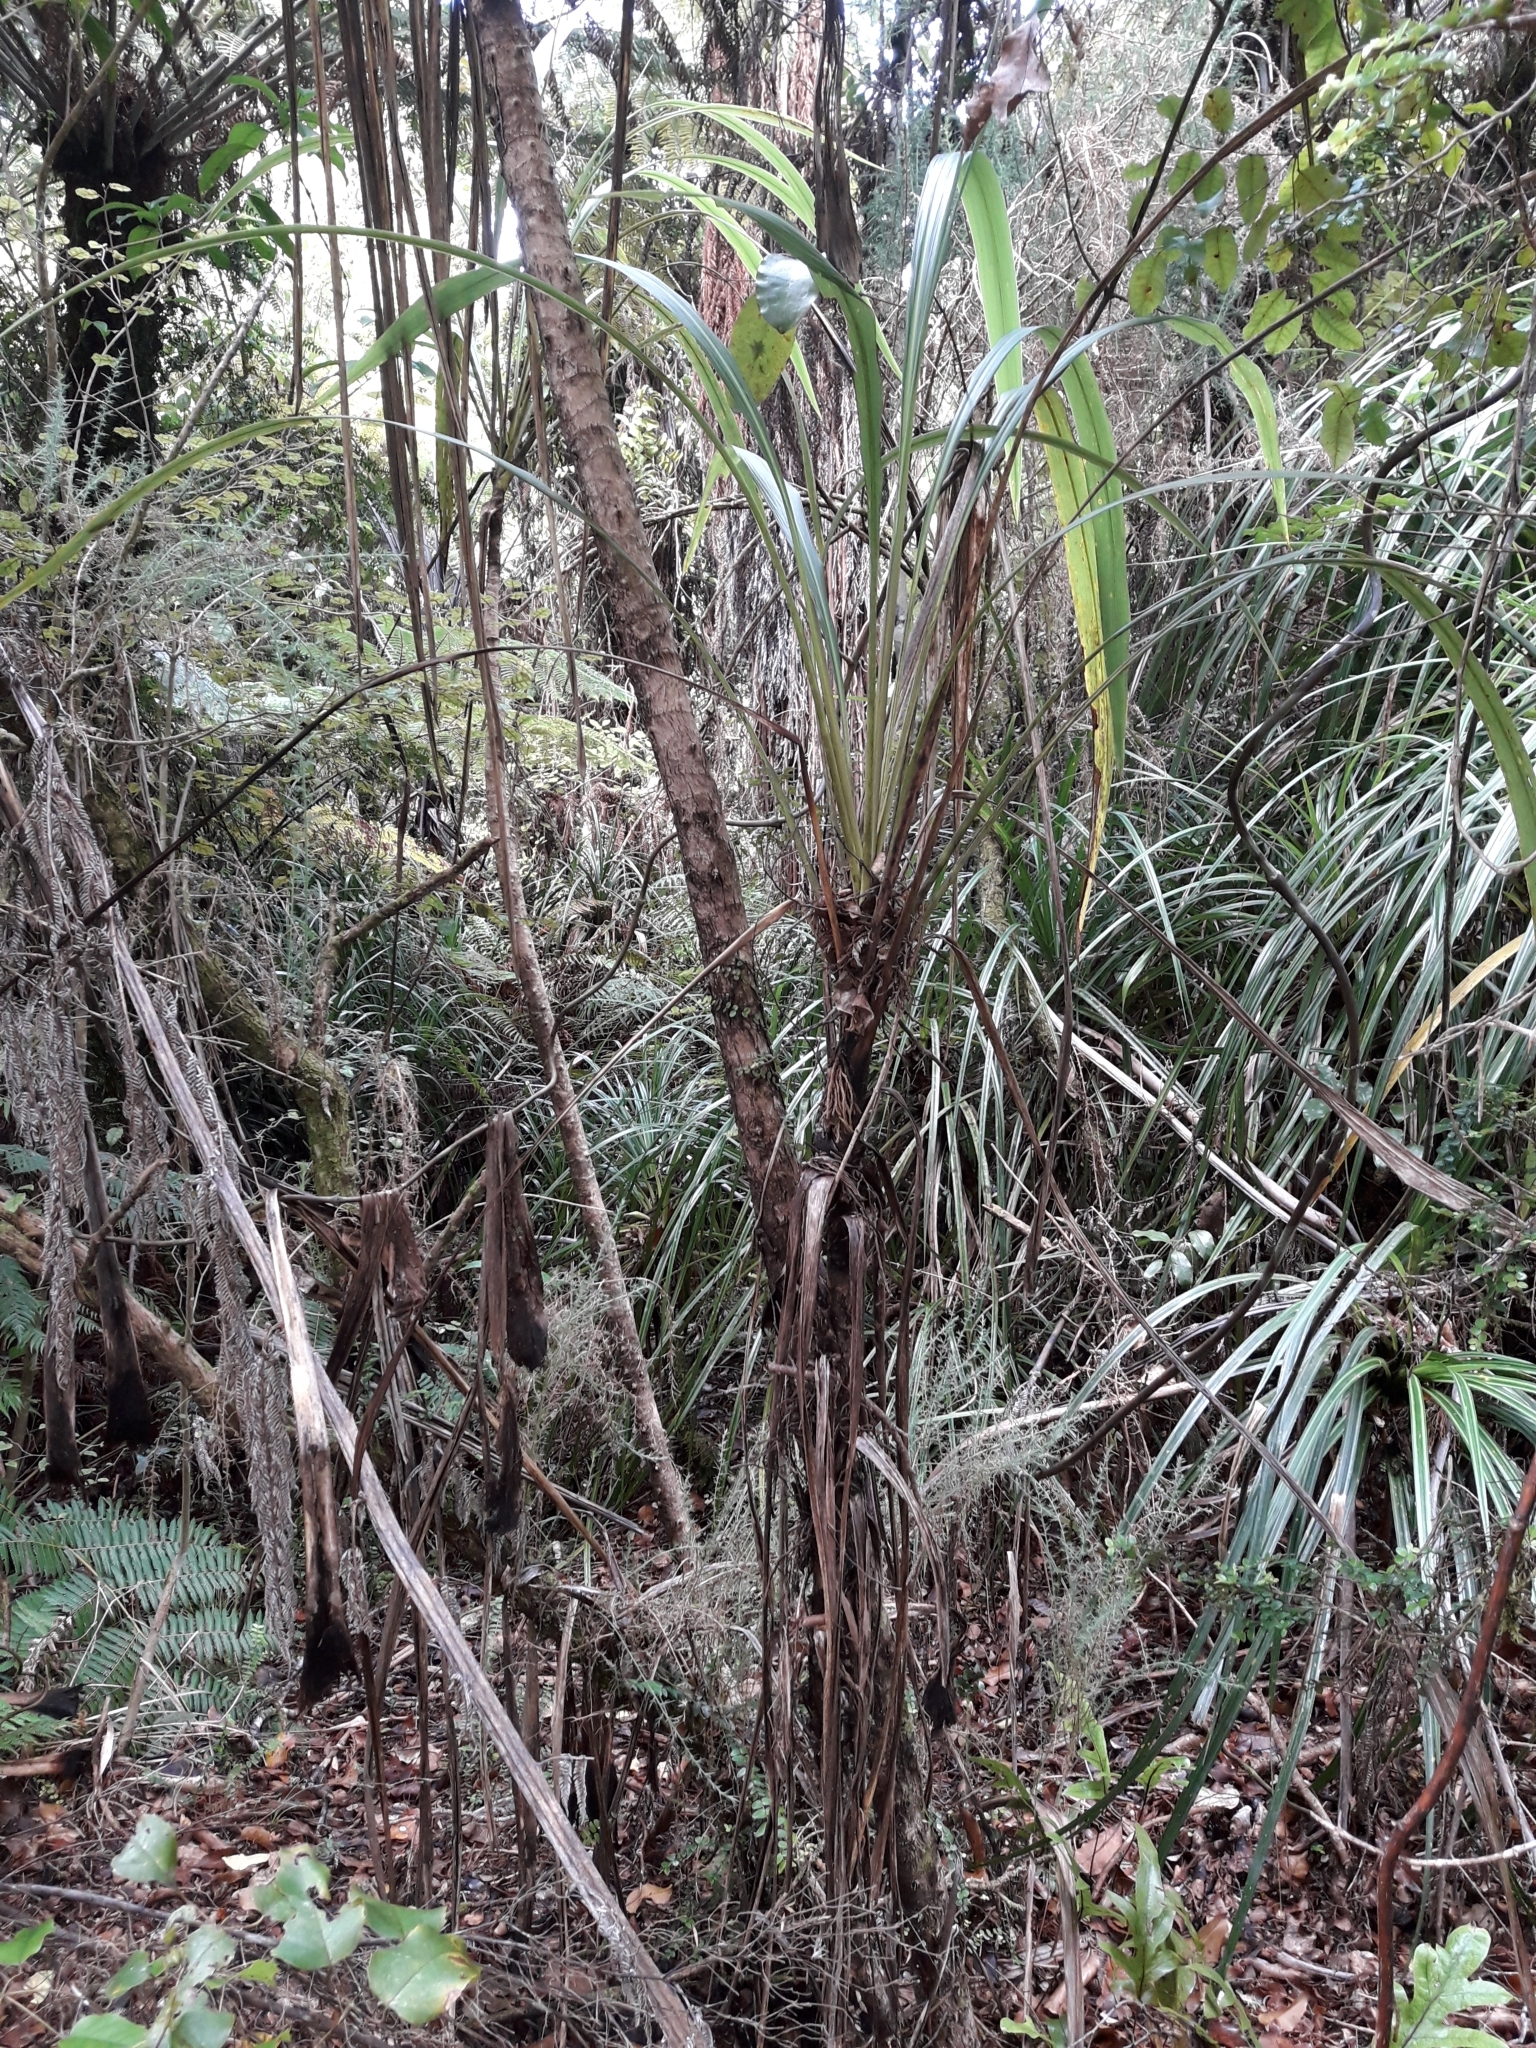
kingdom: Plantae
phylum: Tracheophyta
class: Liliopsida
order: Asparagales
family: Asparagaceae
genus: Cordyline
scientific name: Cordyline banksii
